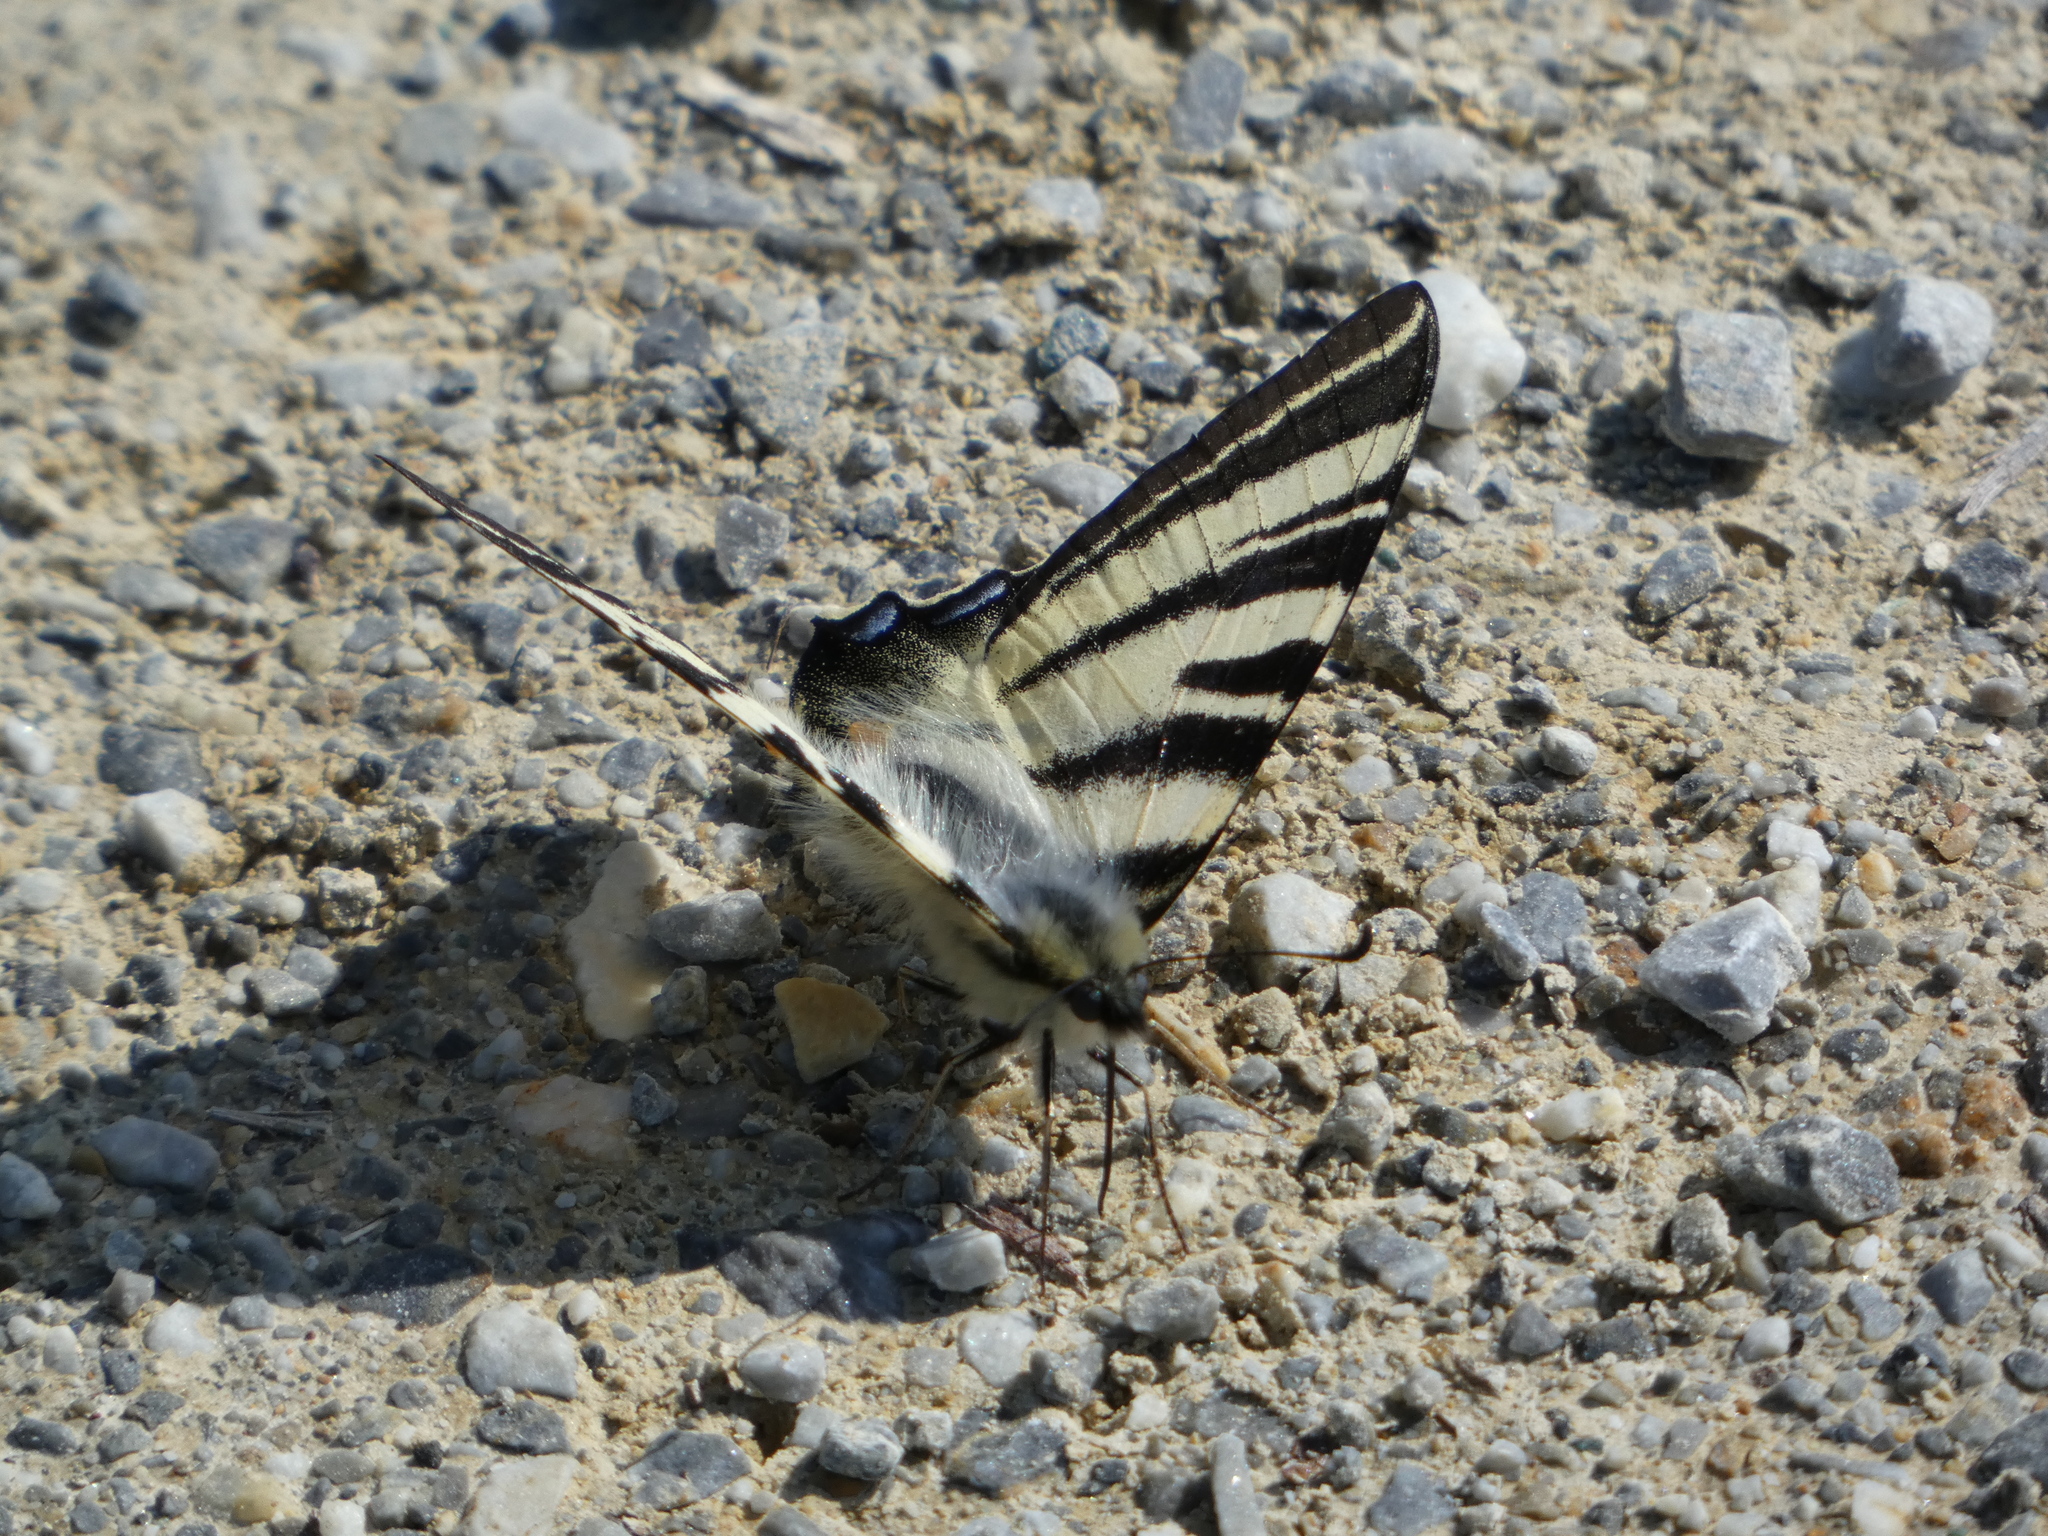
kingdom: Animalia
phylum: Arthropoda
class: Insecta
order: Lepidoptera
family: Papilionidae
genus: Iphiclides
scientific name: Iphiclides podalirius
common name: Scarce swallowtail
